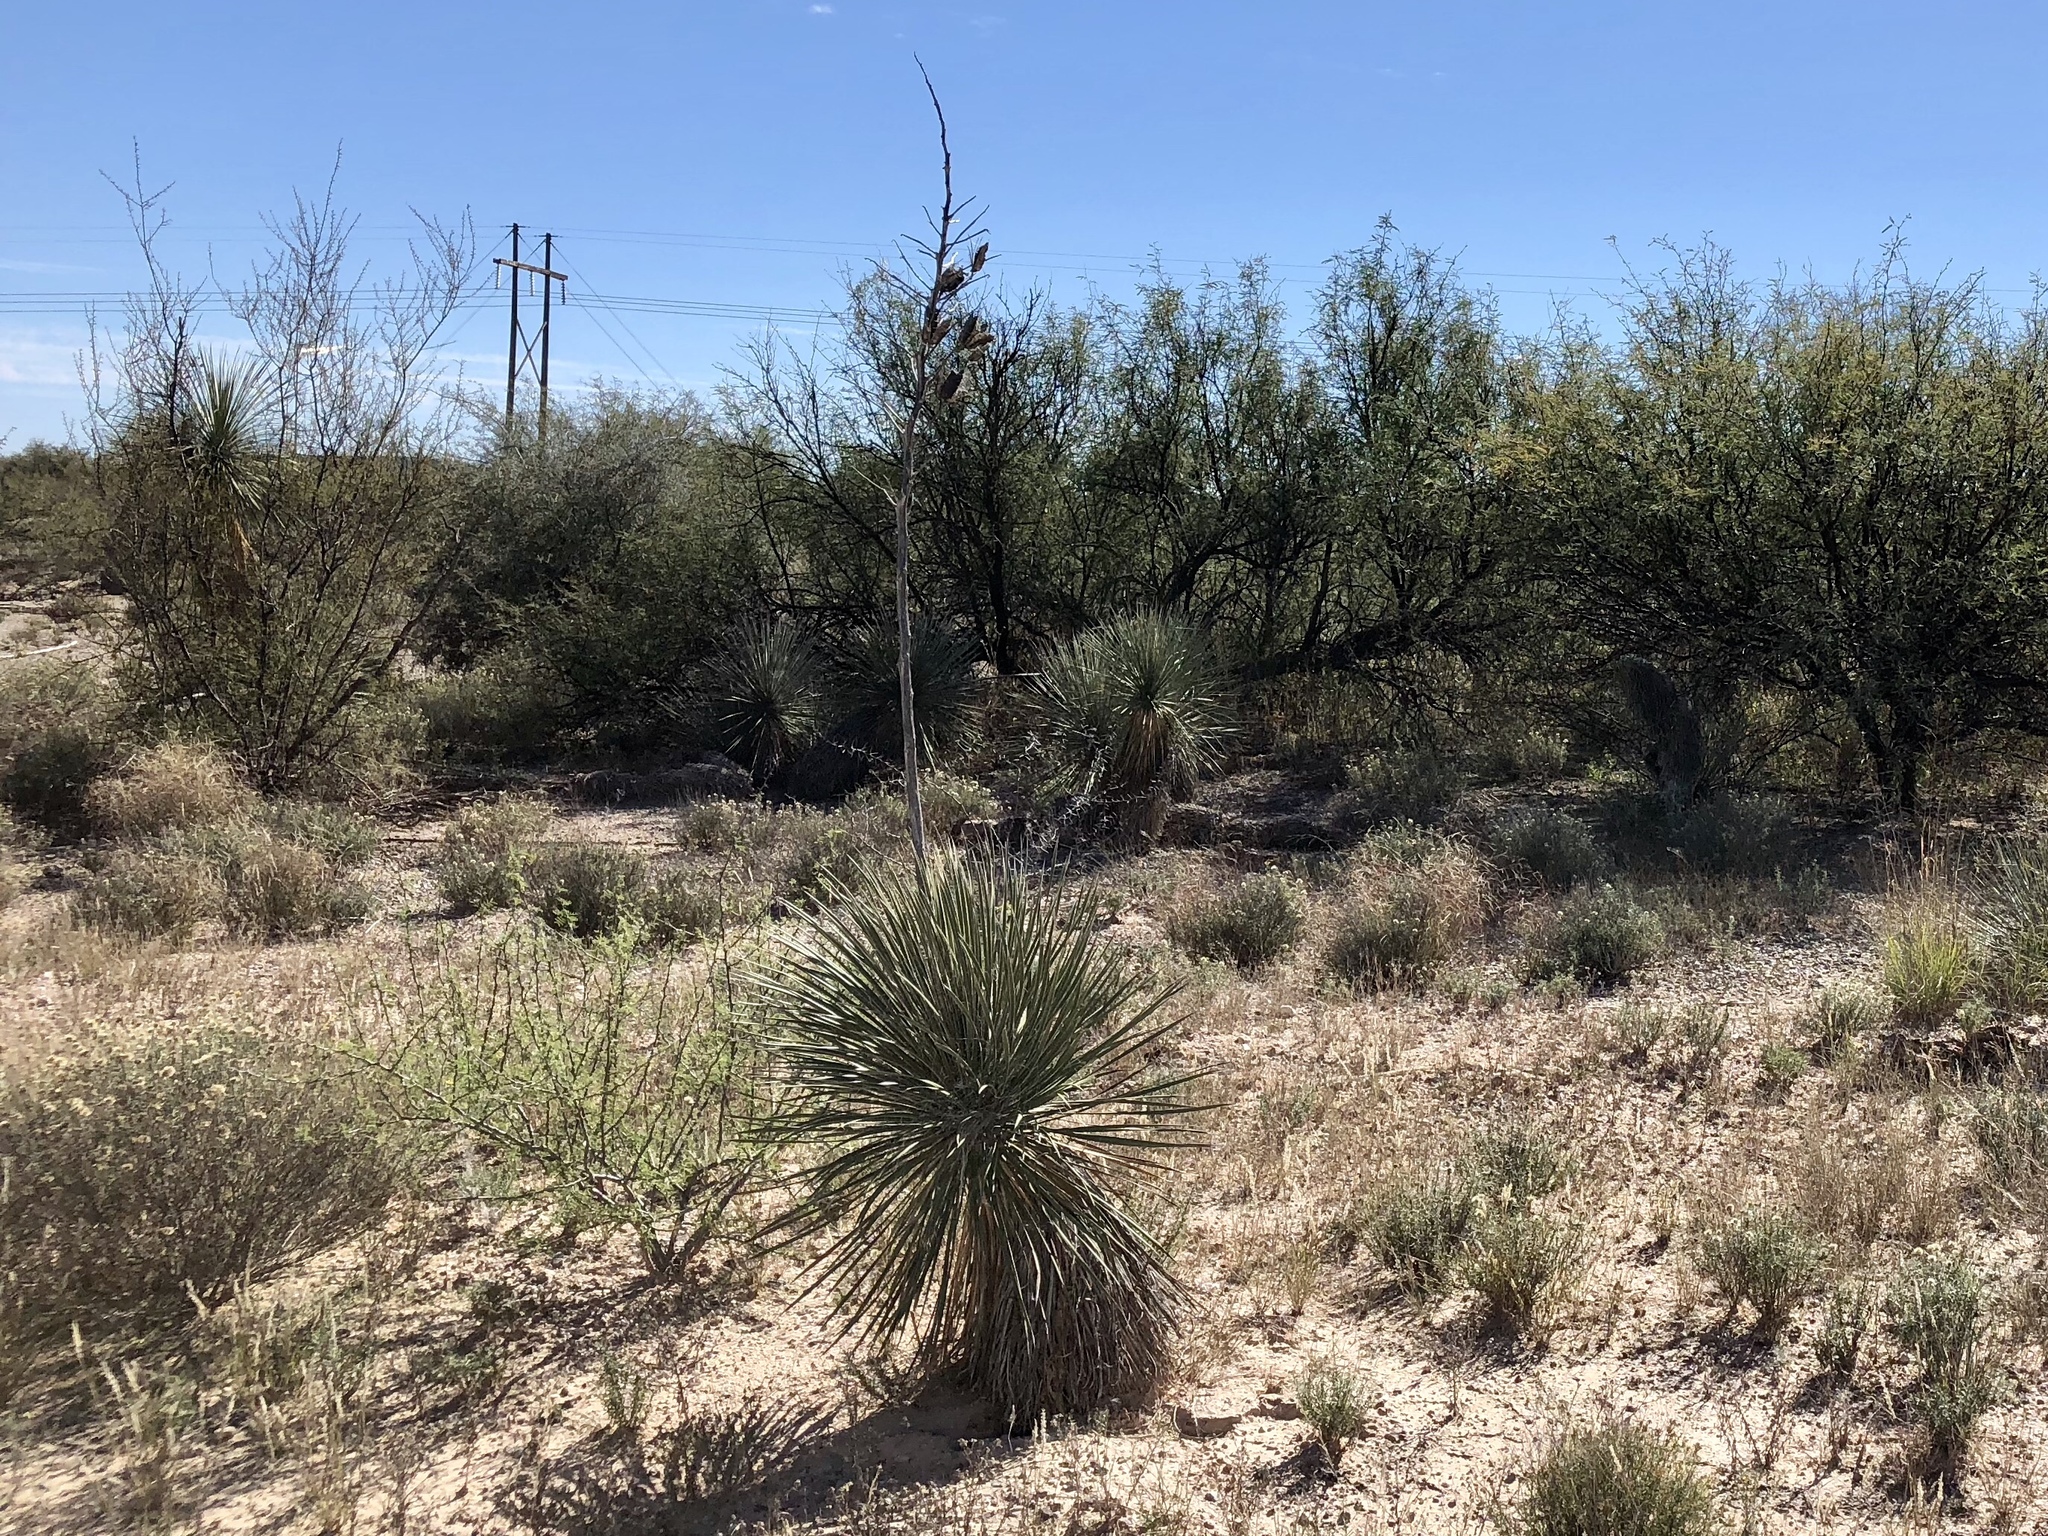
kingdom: Plantae
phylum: Tracheophyta
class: Liliopsida
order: Asparagales
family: Asparagaceae
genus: Yucca
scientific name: Yucca elata
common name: Palmella
